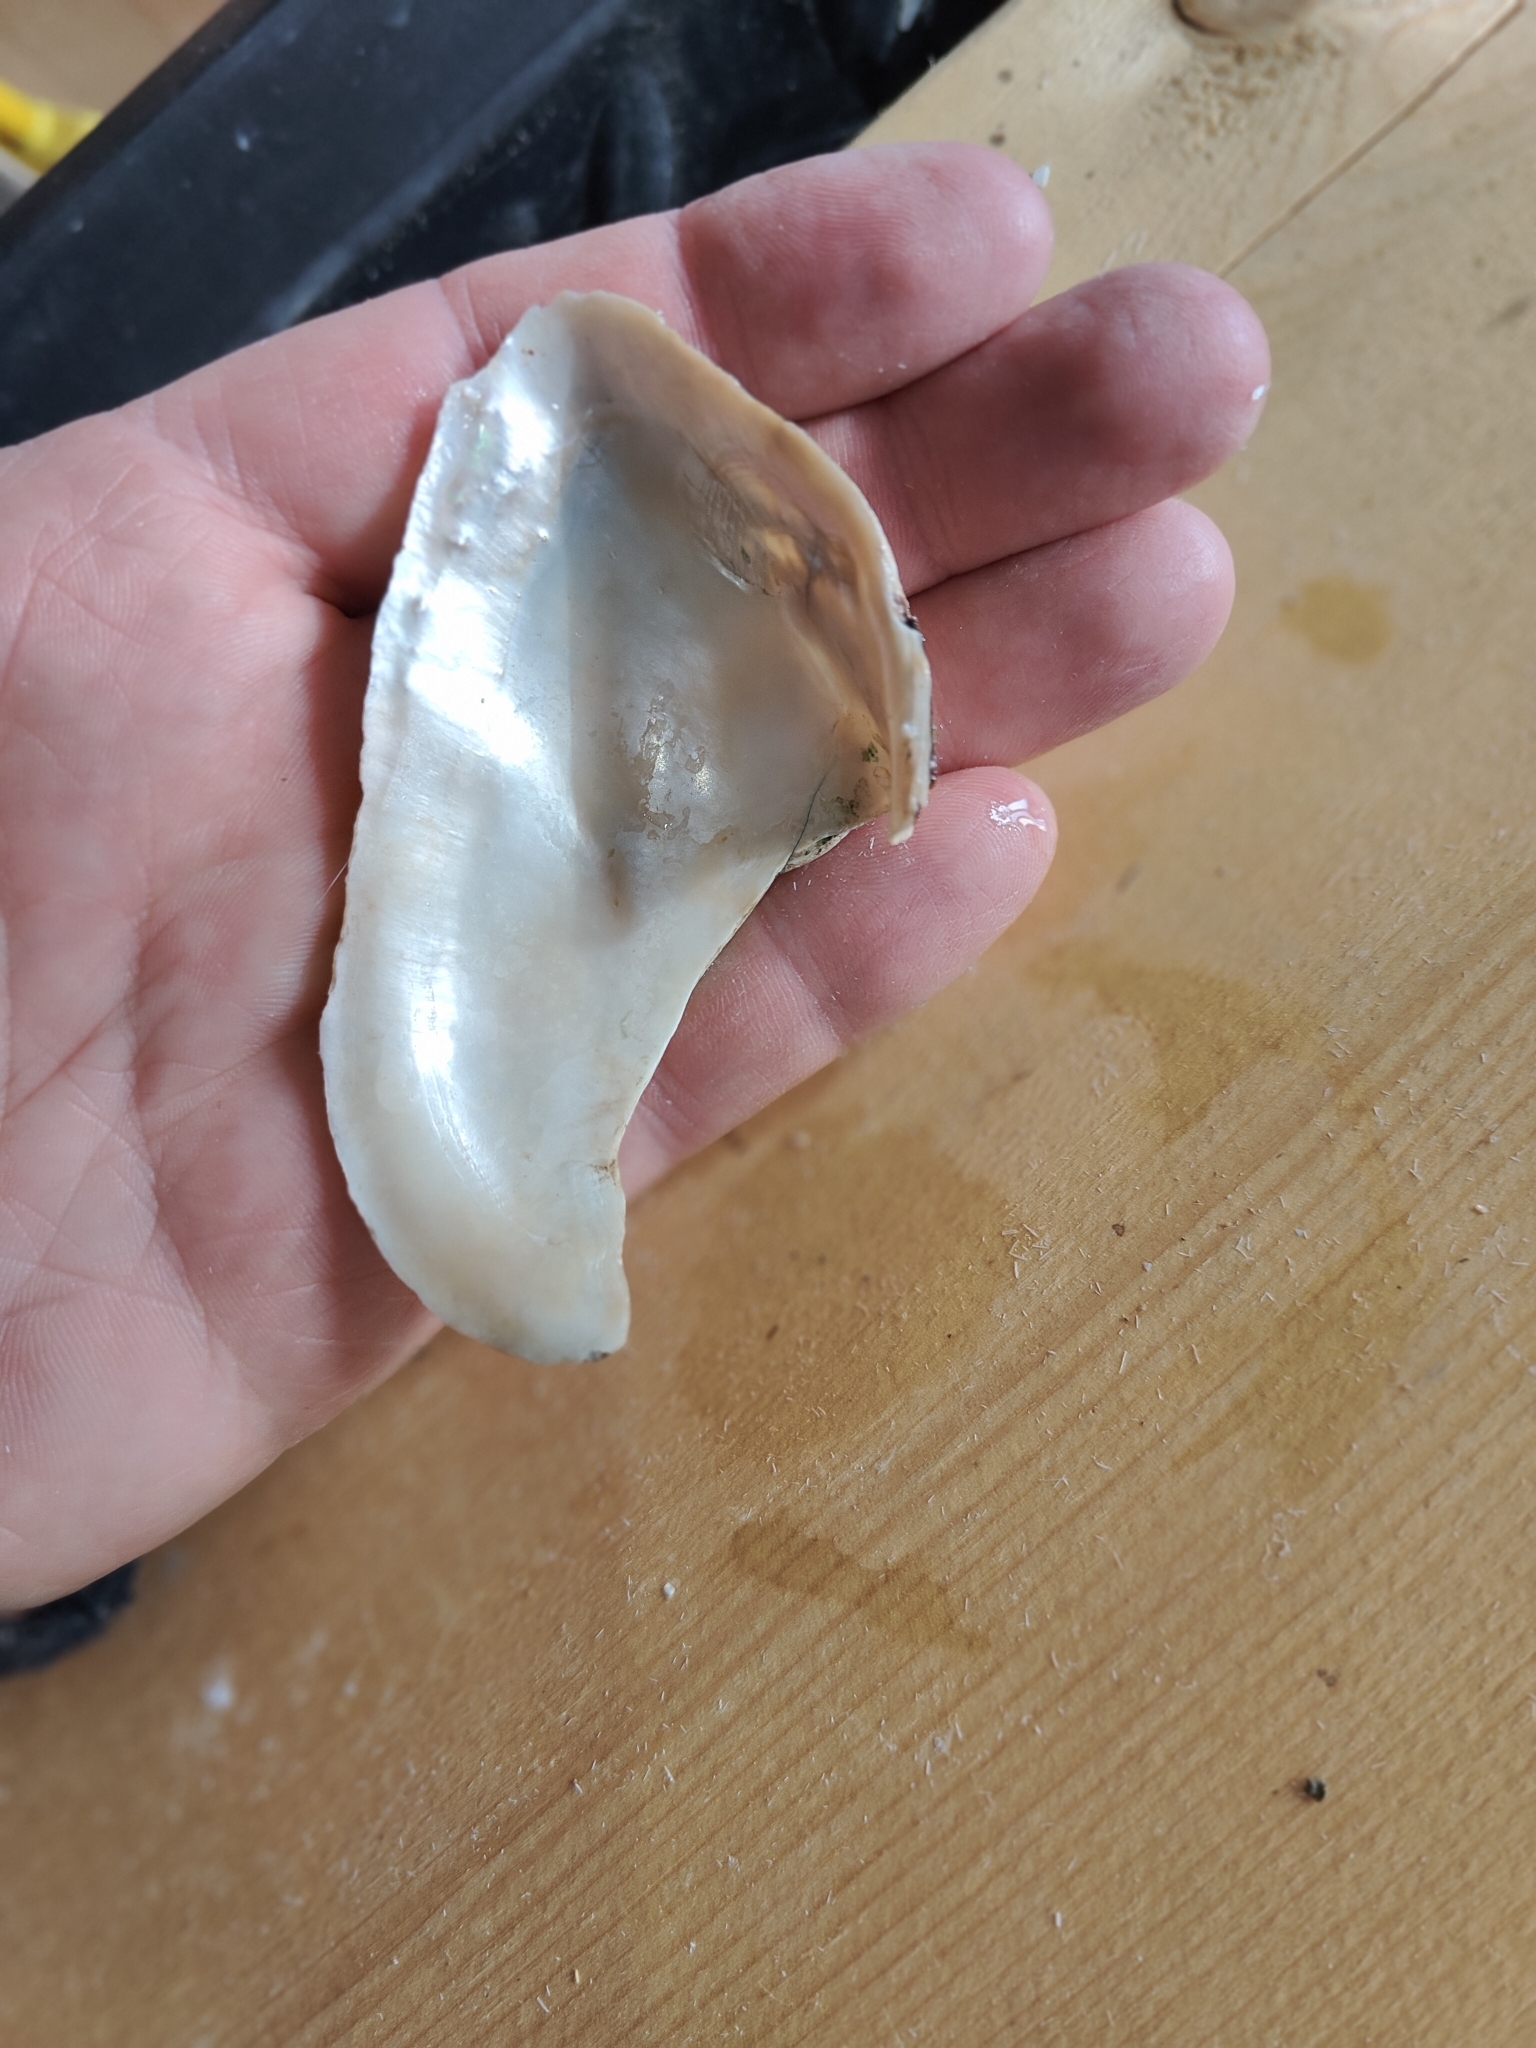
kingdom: Animalia
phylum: Mollusca
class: Bivalvia
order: Unionida
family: Unionidae
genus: Alasmidonta
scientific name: Alasmidonta marginata
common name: Elktoe
